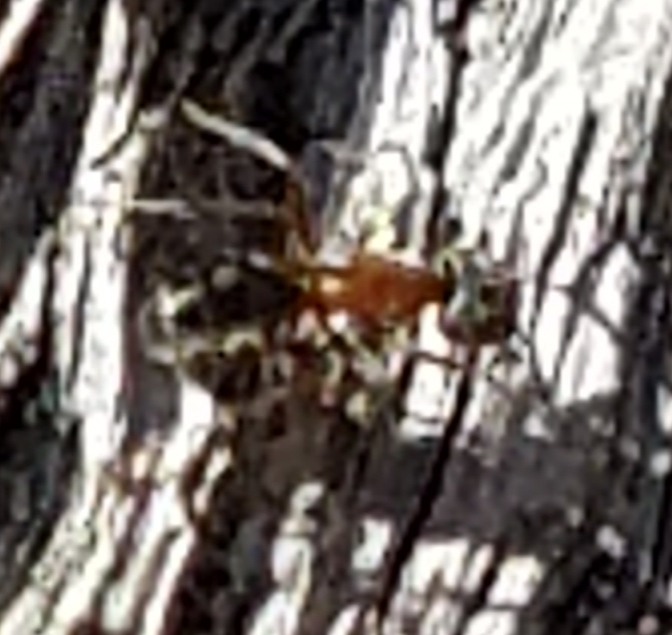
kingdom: Animalia
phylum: Arthropoda
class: Insecta
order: Hymenoptera
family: Formicidae
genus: Liometopum
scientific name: Liometopum occidentale
